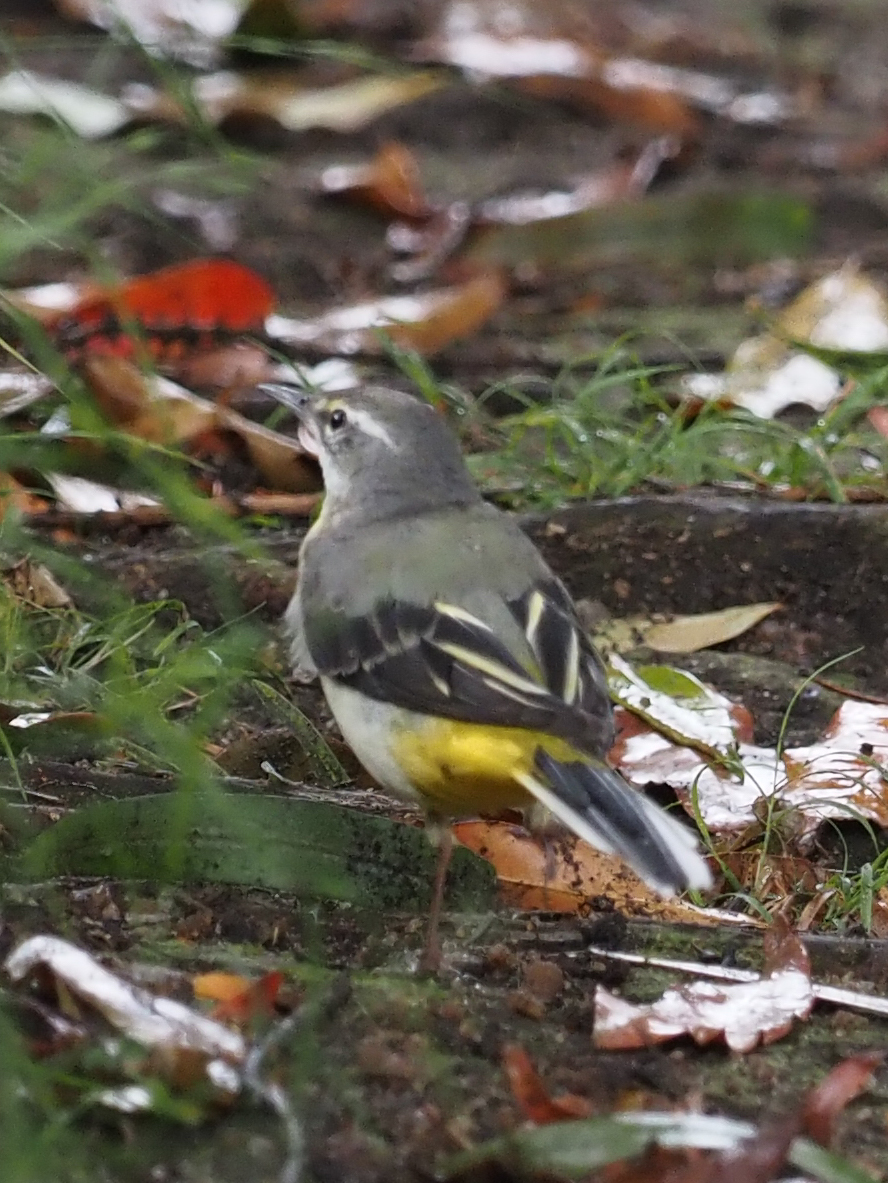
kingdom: Animalia
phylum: Chordata
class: Aves
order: Passeriformes
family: Motacillidae
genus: Motacilla
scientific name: Motacilla cinerea
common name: Grey wagtail
